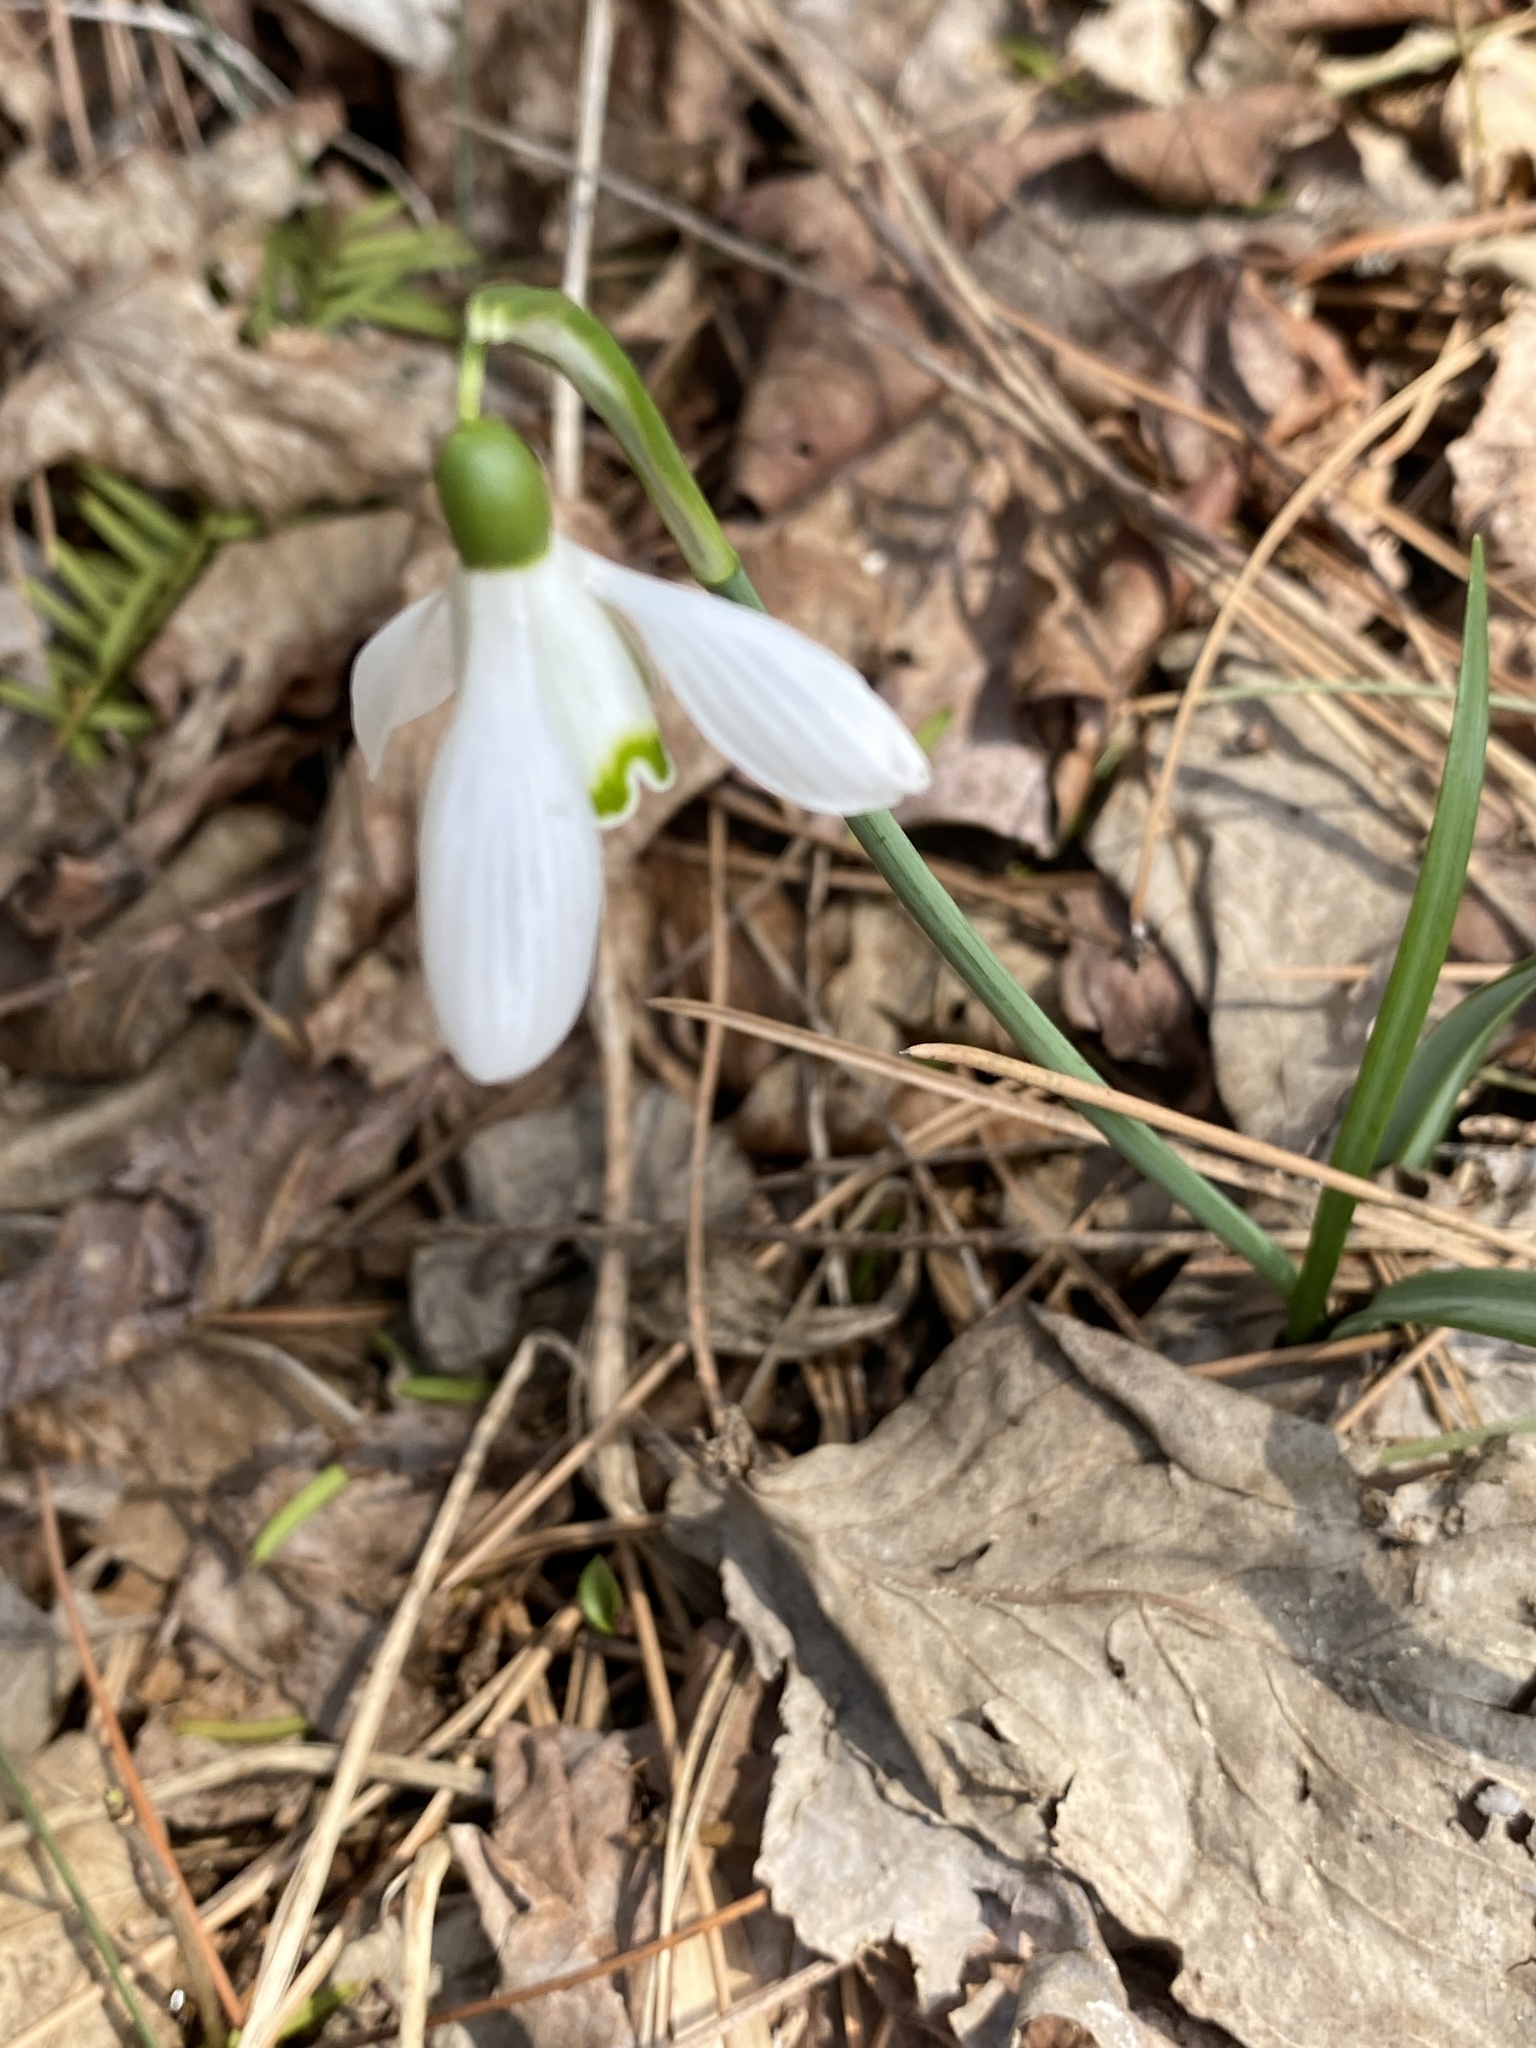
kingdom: Plantae
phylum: Tracheophyta
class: Liliopsida
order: Asparagales
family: Amaryllidaceae
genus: Galanthus
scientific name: Galanthus nivalis
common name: Snowdrop
